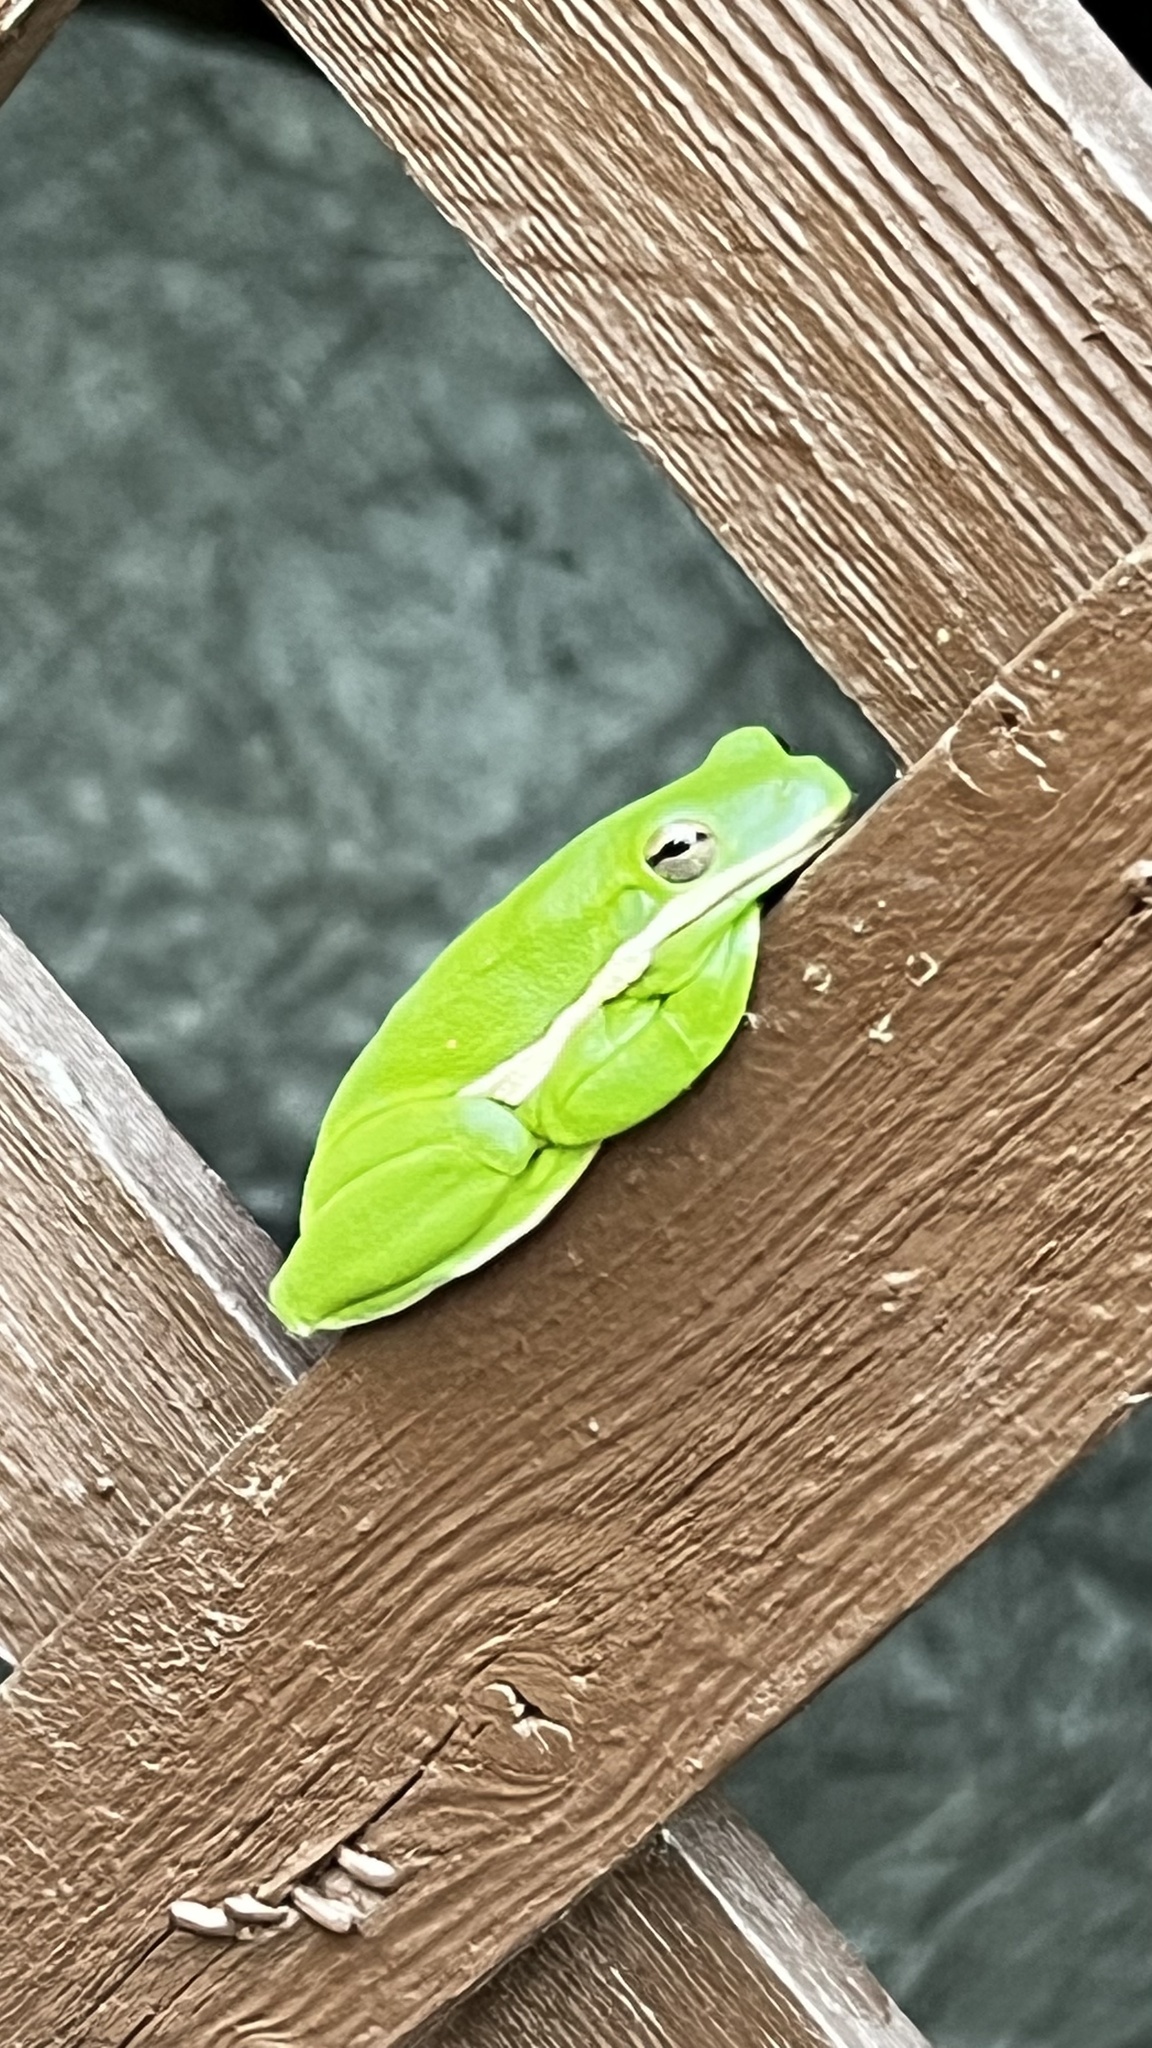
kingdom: Animalia
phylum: Chordata
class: Amphibia
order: Anura
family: Hylidae
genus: Dryophytes
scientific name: Dryophytes cinereus
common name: Green treefrog
